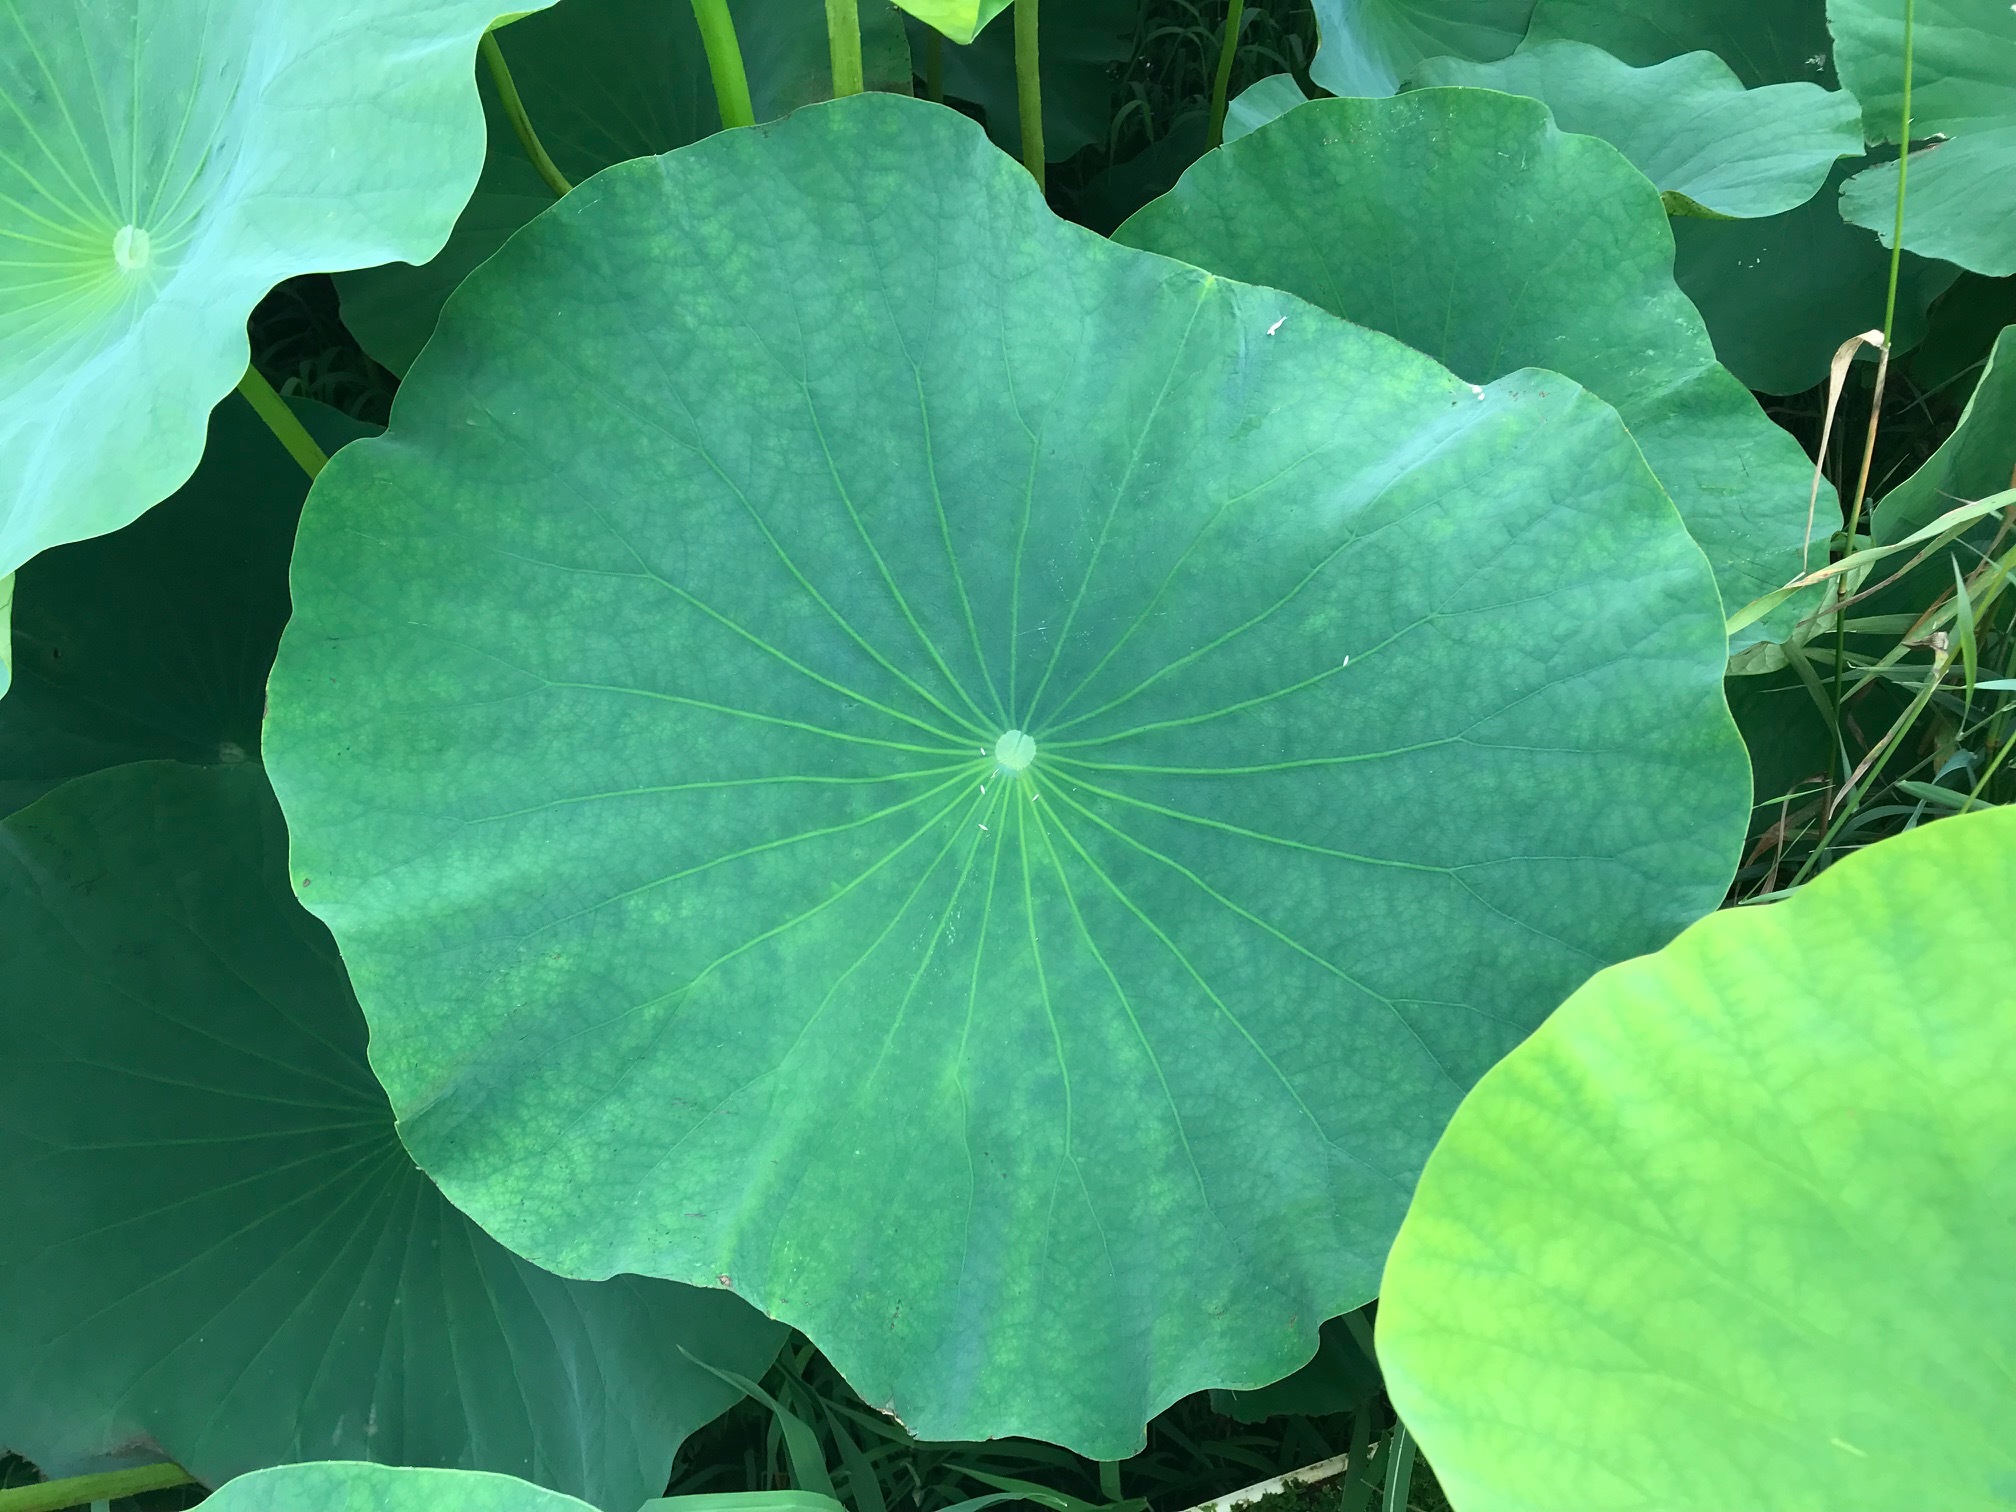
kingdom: Plantae
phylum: Tracheophyta
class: Magnoliopsida
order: Proteales
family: Nelumbonaceae
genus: Nelumbo
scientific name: Nelumbo nucifera
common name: Sacred lotus
